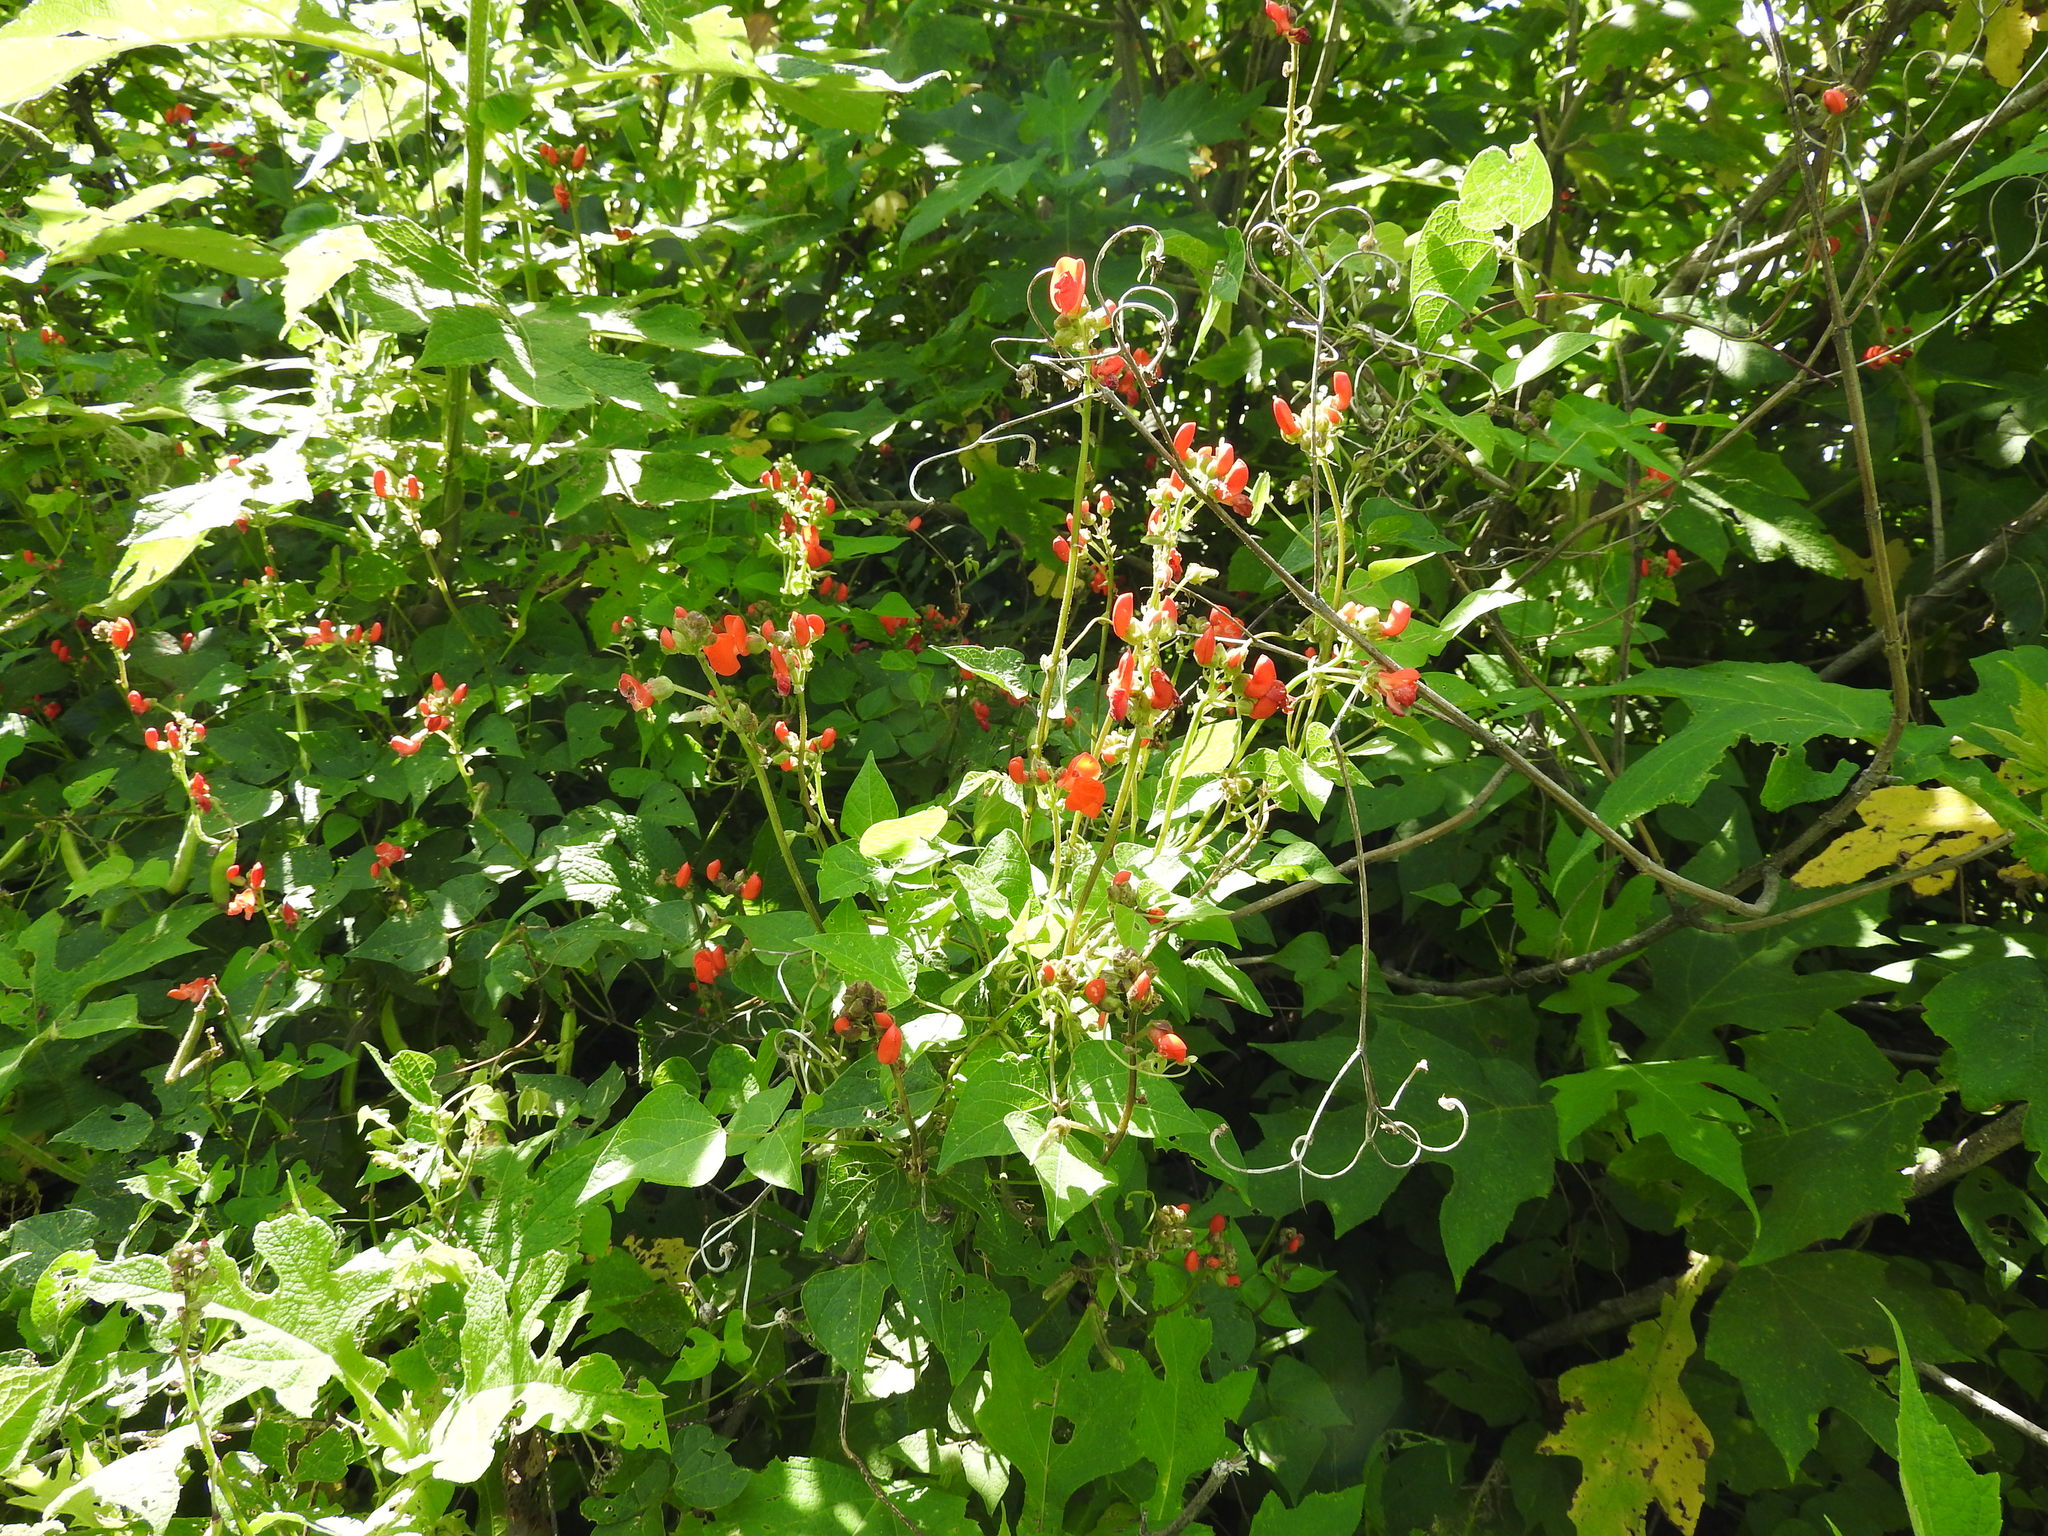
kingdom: Plantae
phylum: Tracheophyta
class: Magnoliopsida
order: Fabales
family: Fabaceae
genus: Phaseolus
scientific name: Phaseolus coccineus
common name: Runner bean
